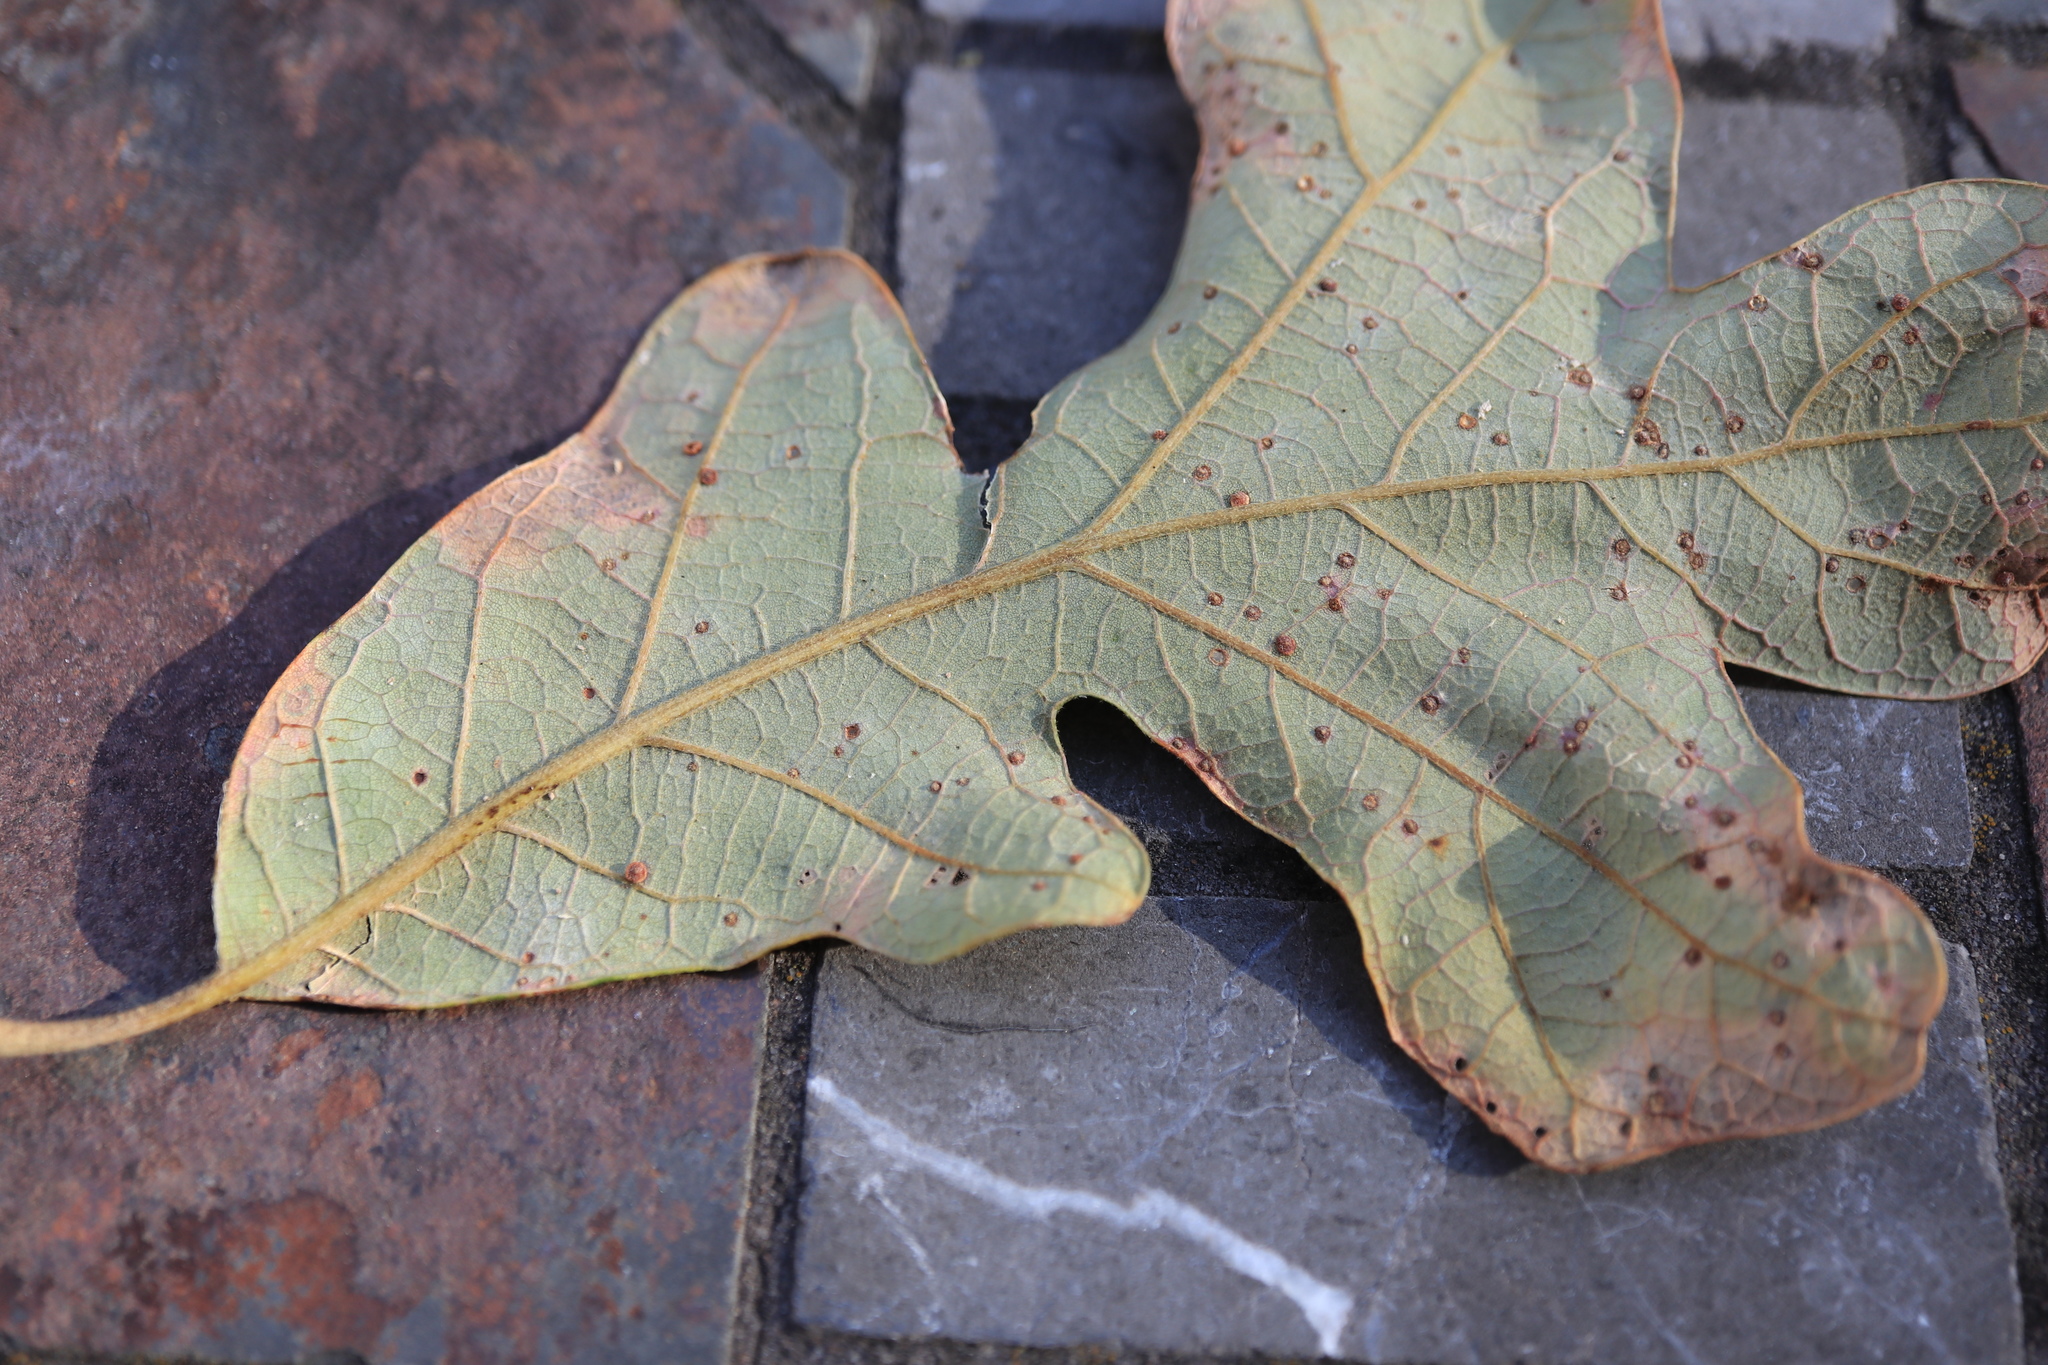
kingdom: Animalia
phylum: Arthropoda
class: Insecta
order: Hymenoptera
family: Cynipidae
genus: Neuroterus
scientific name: Neuroterus
